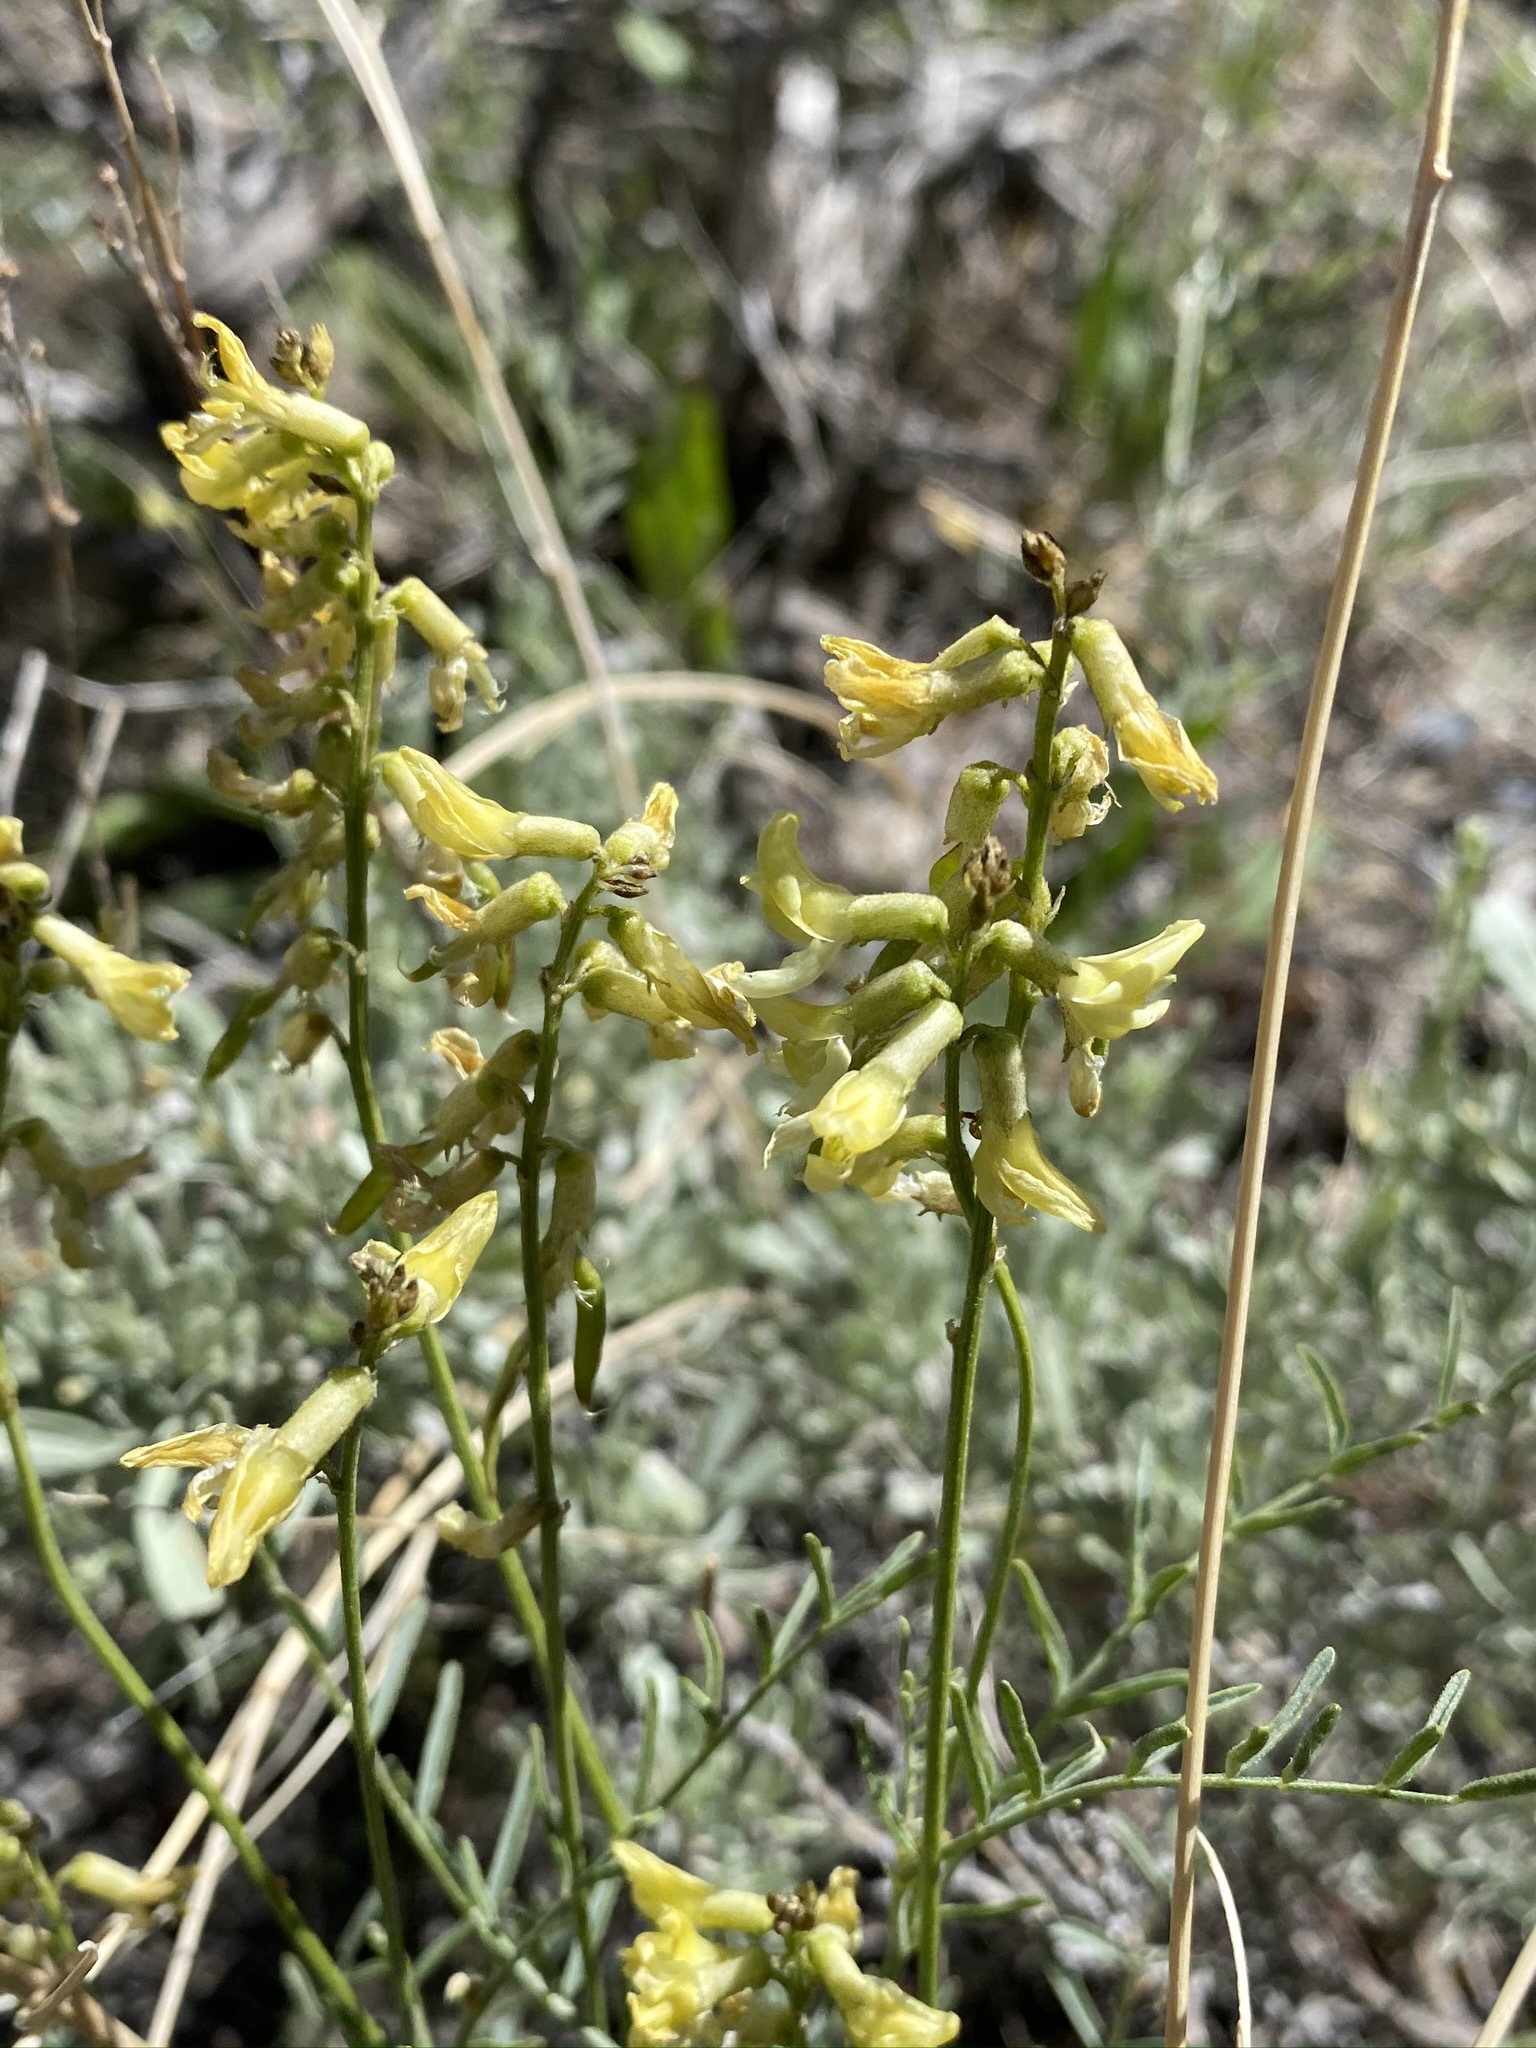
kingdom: Plantae
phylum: Tracheophyta
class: Magnoliopsida
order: Fabales
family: Fabaceae
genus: Astragalus
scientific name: Astragalus filipes
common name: Basalt milk-vetch
